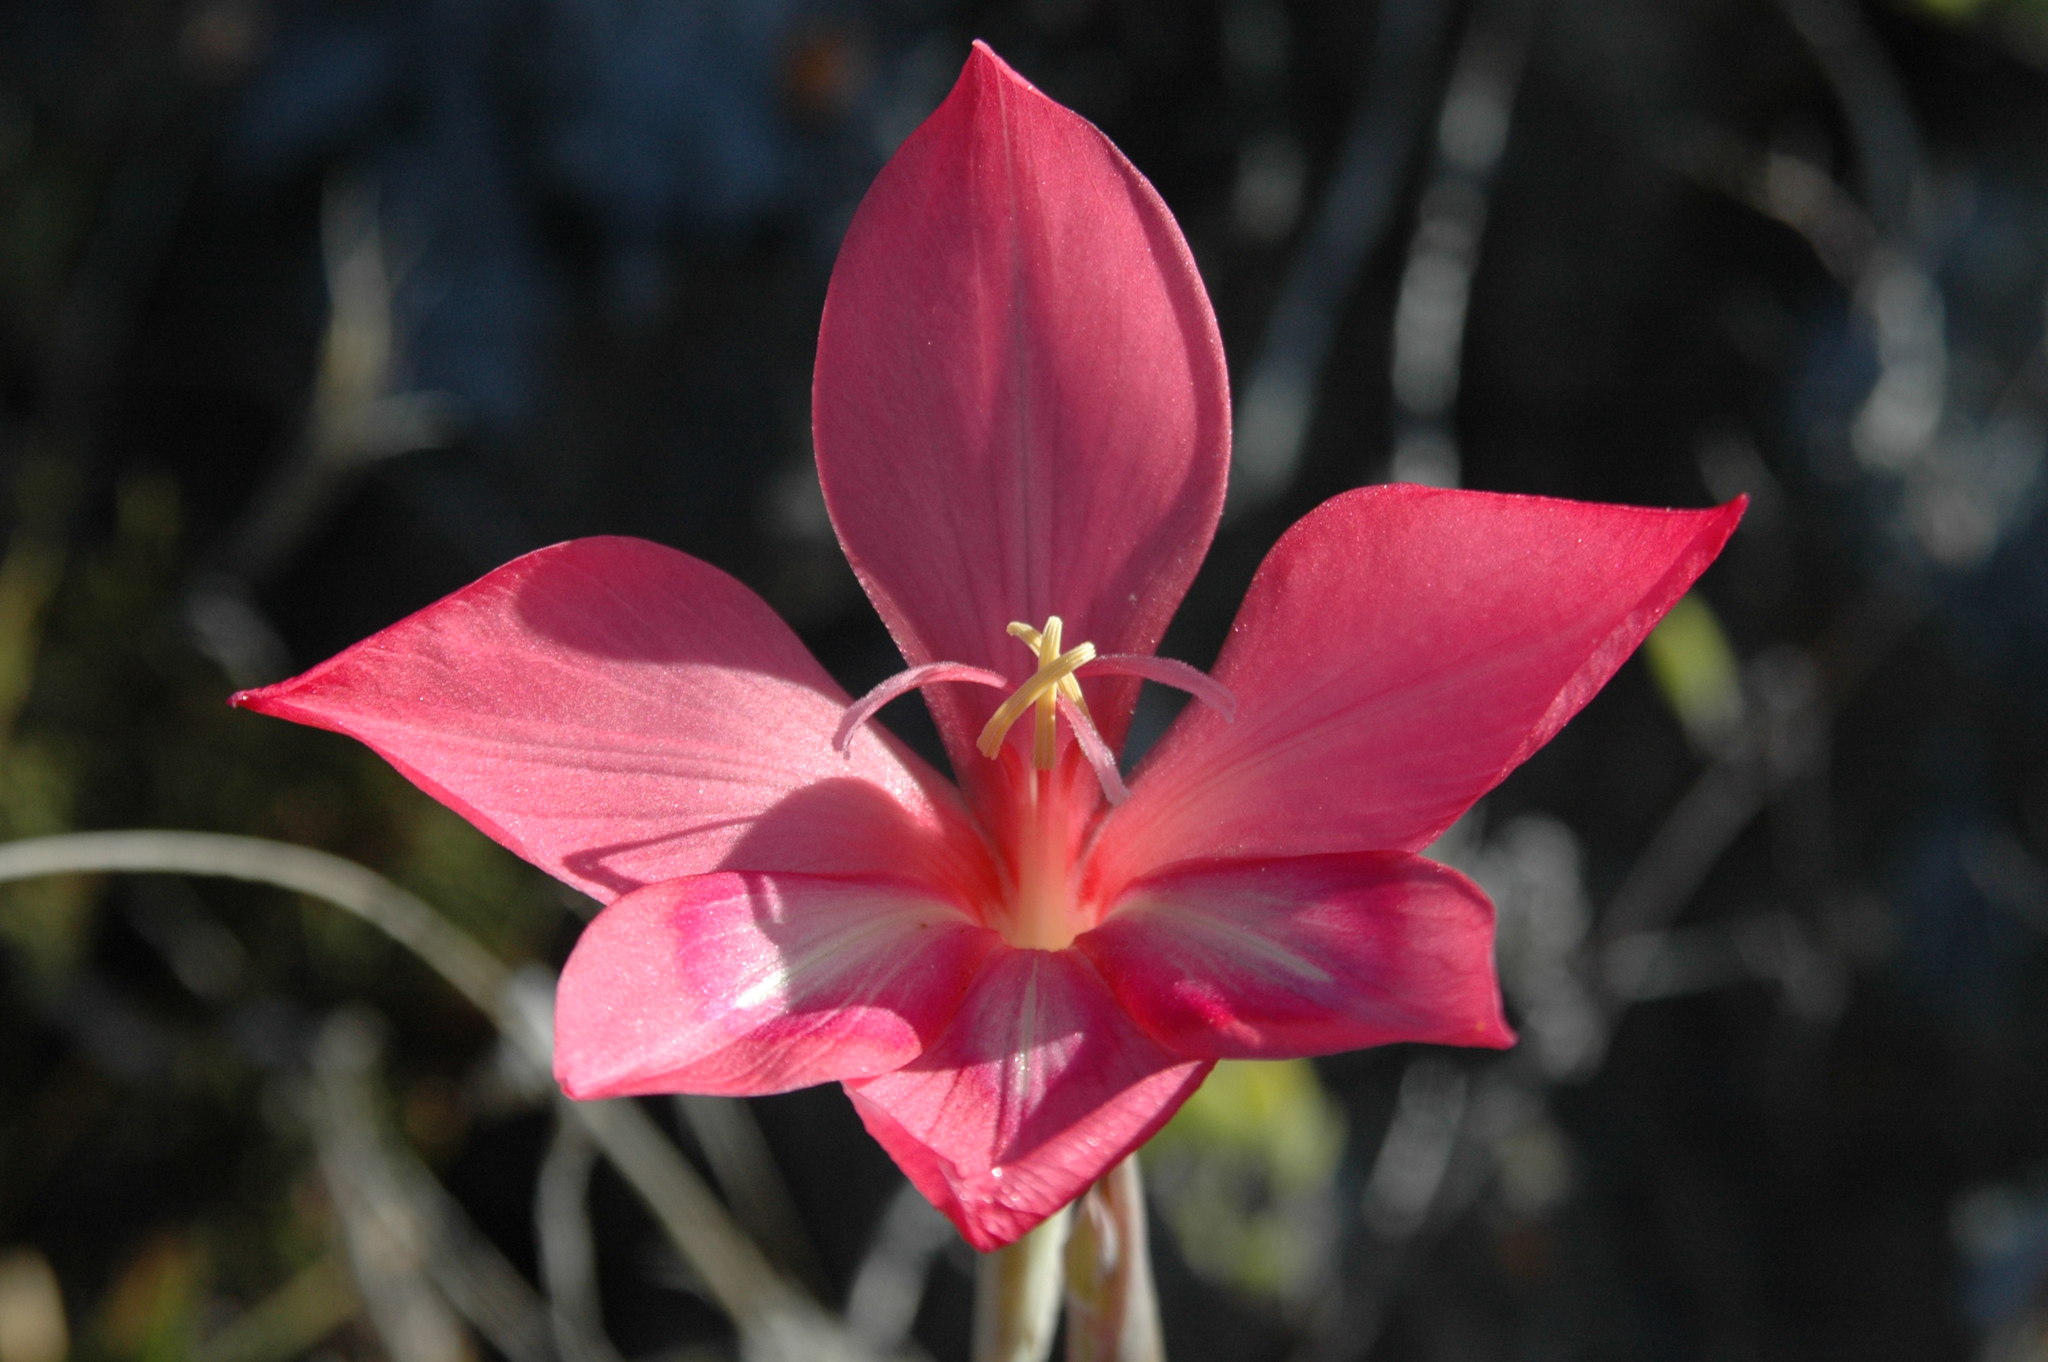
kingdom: Plantae
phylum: Tracheophyta
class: Liliopsida
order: Asparagales
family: Iridaceae
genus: Gladiolus
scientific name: Gladiolus carmineus
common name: Hermanus gladiolus
